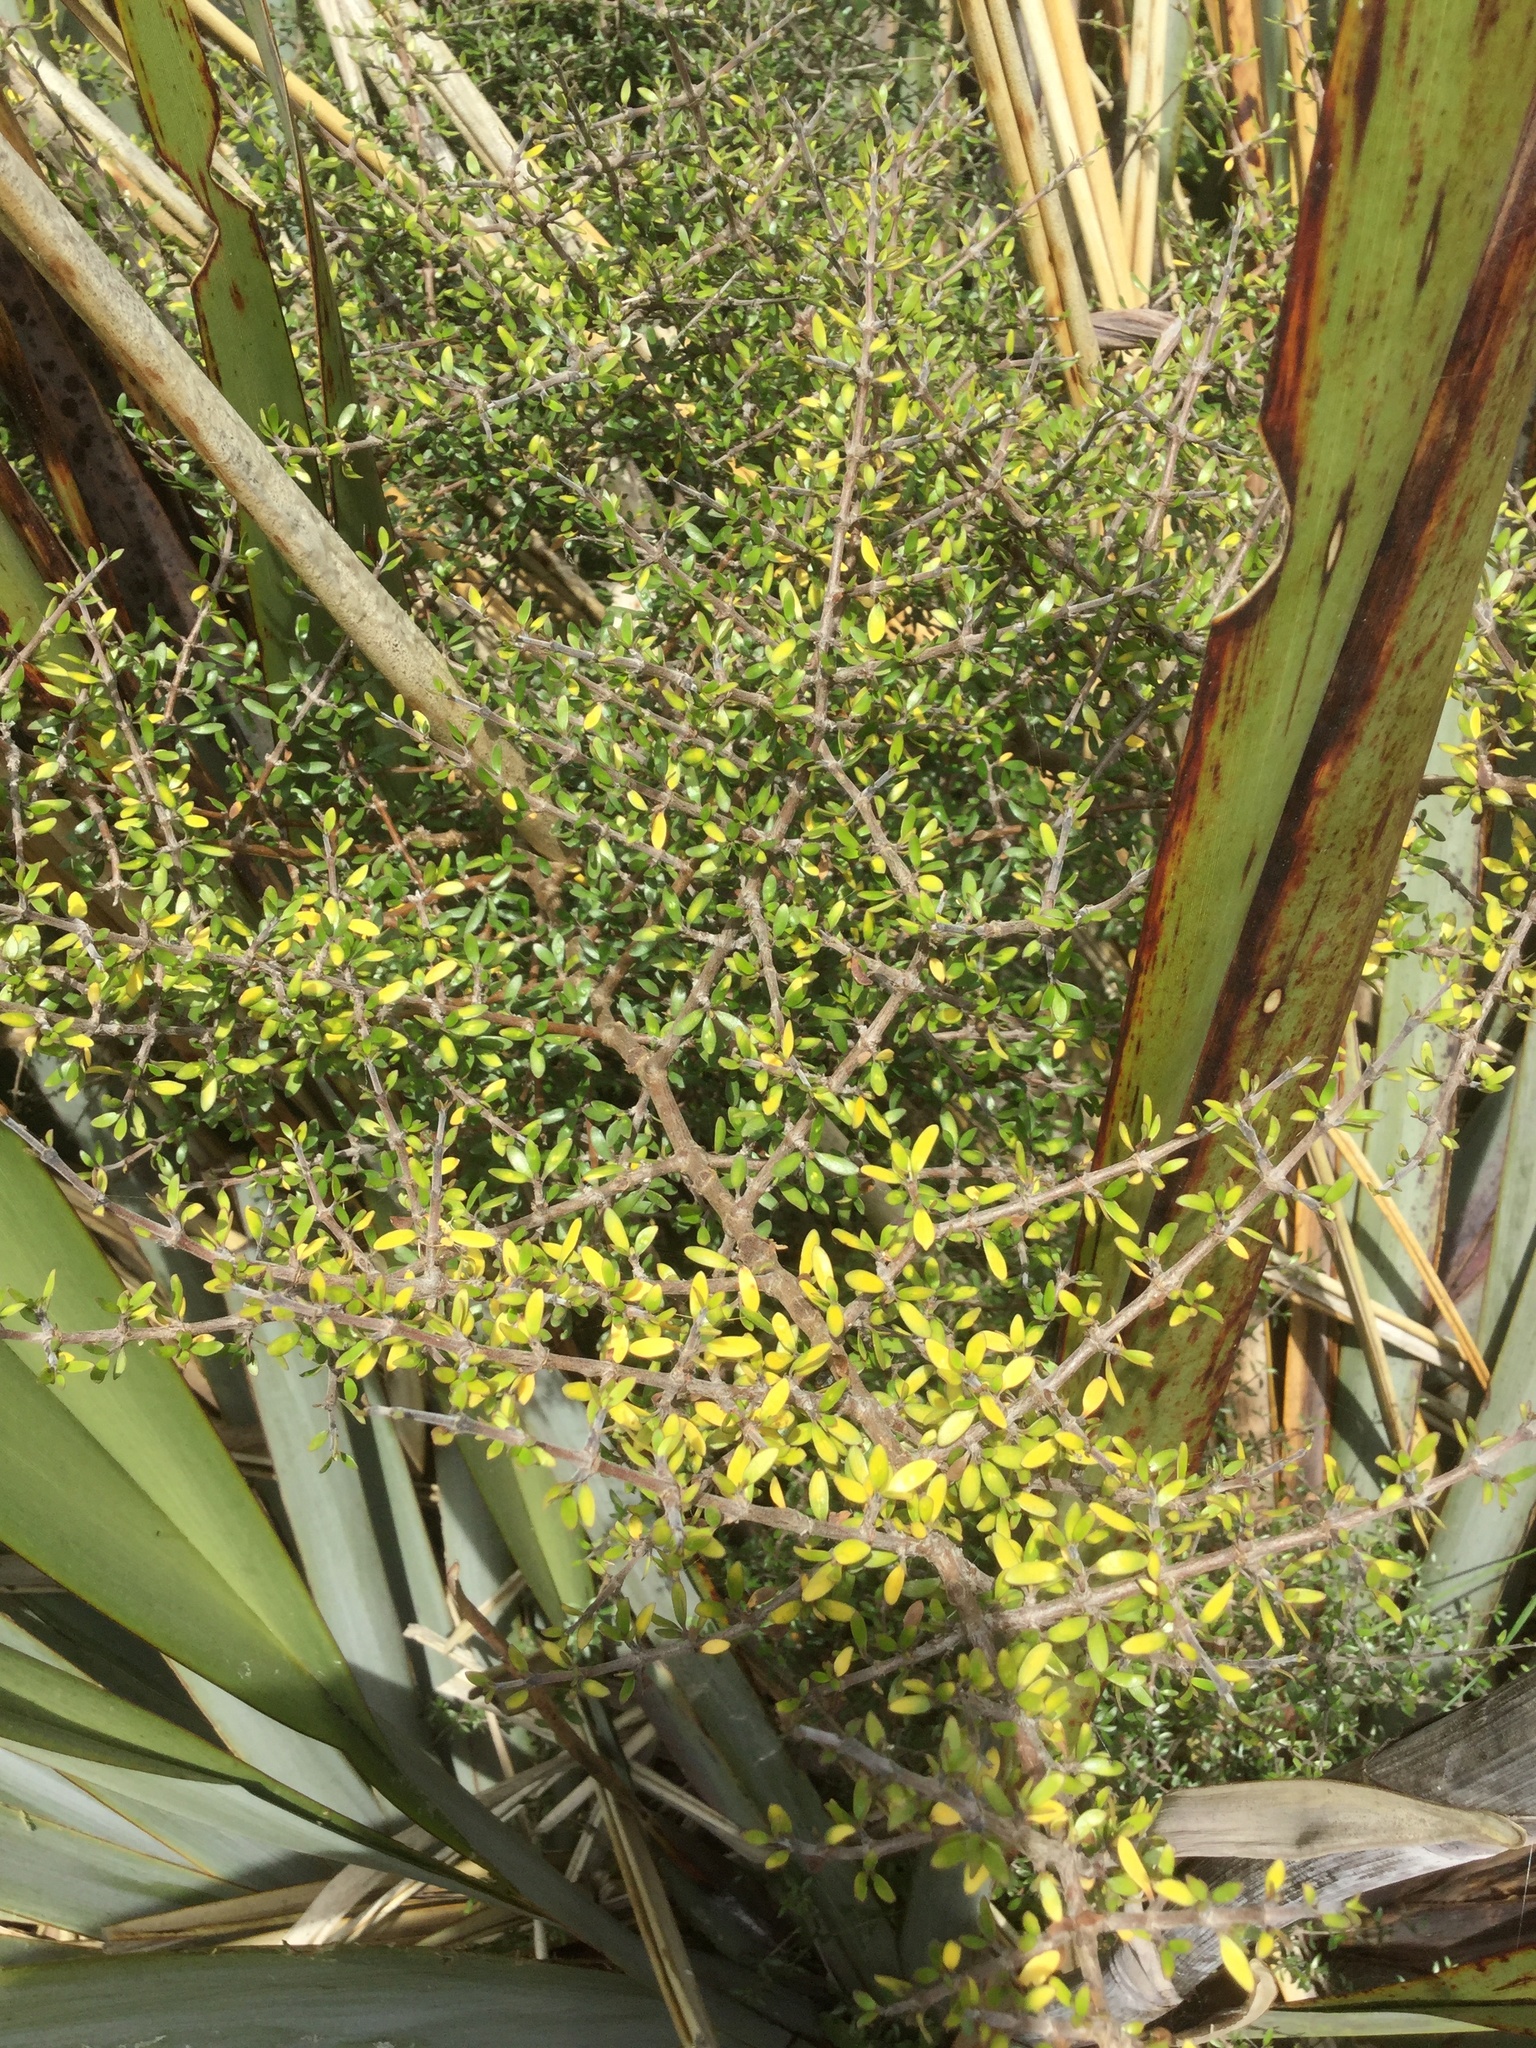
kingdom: Plantae
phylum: Tracheophyta
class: Magnoliopsida
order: Gentianales
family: Rubiaceae
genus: Coprosma
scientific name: Coprosma propinqua
